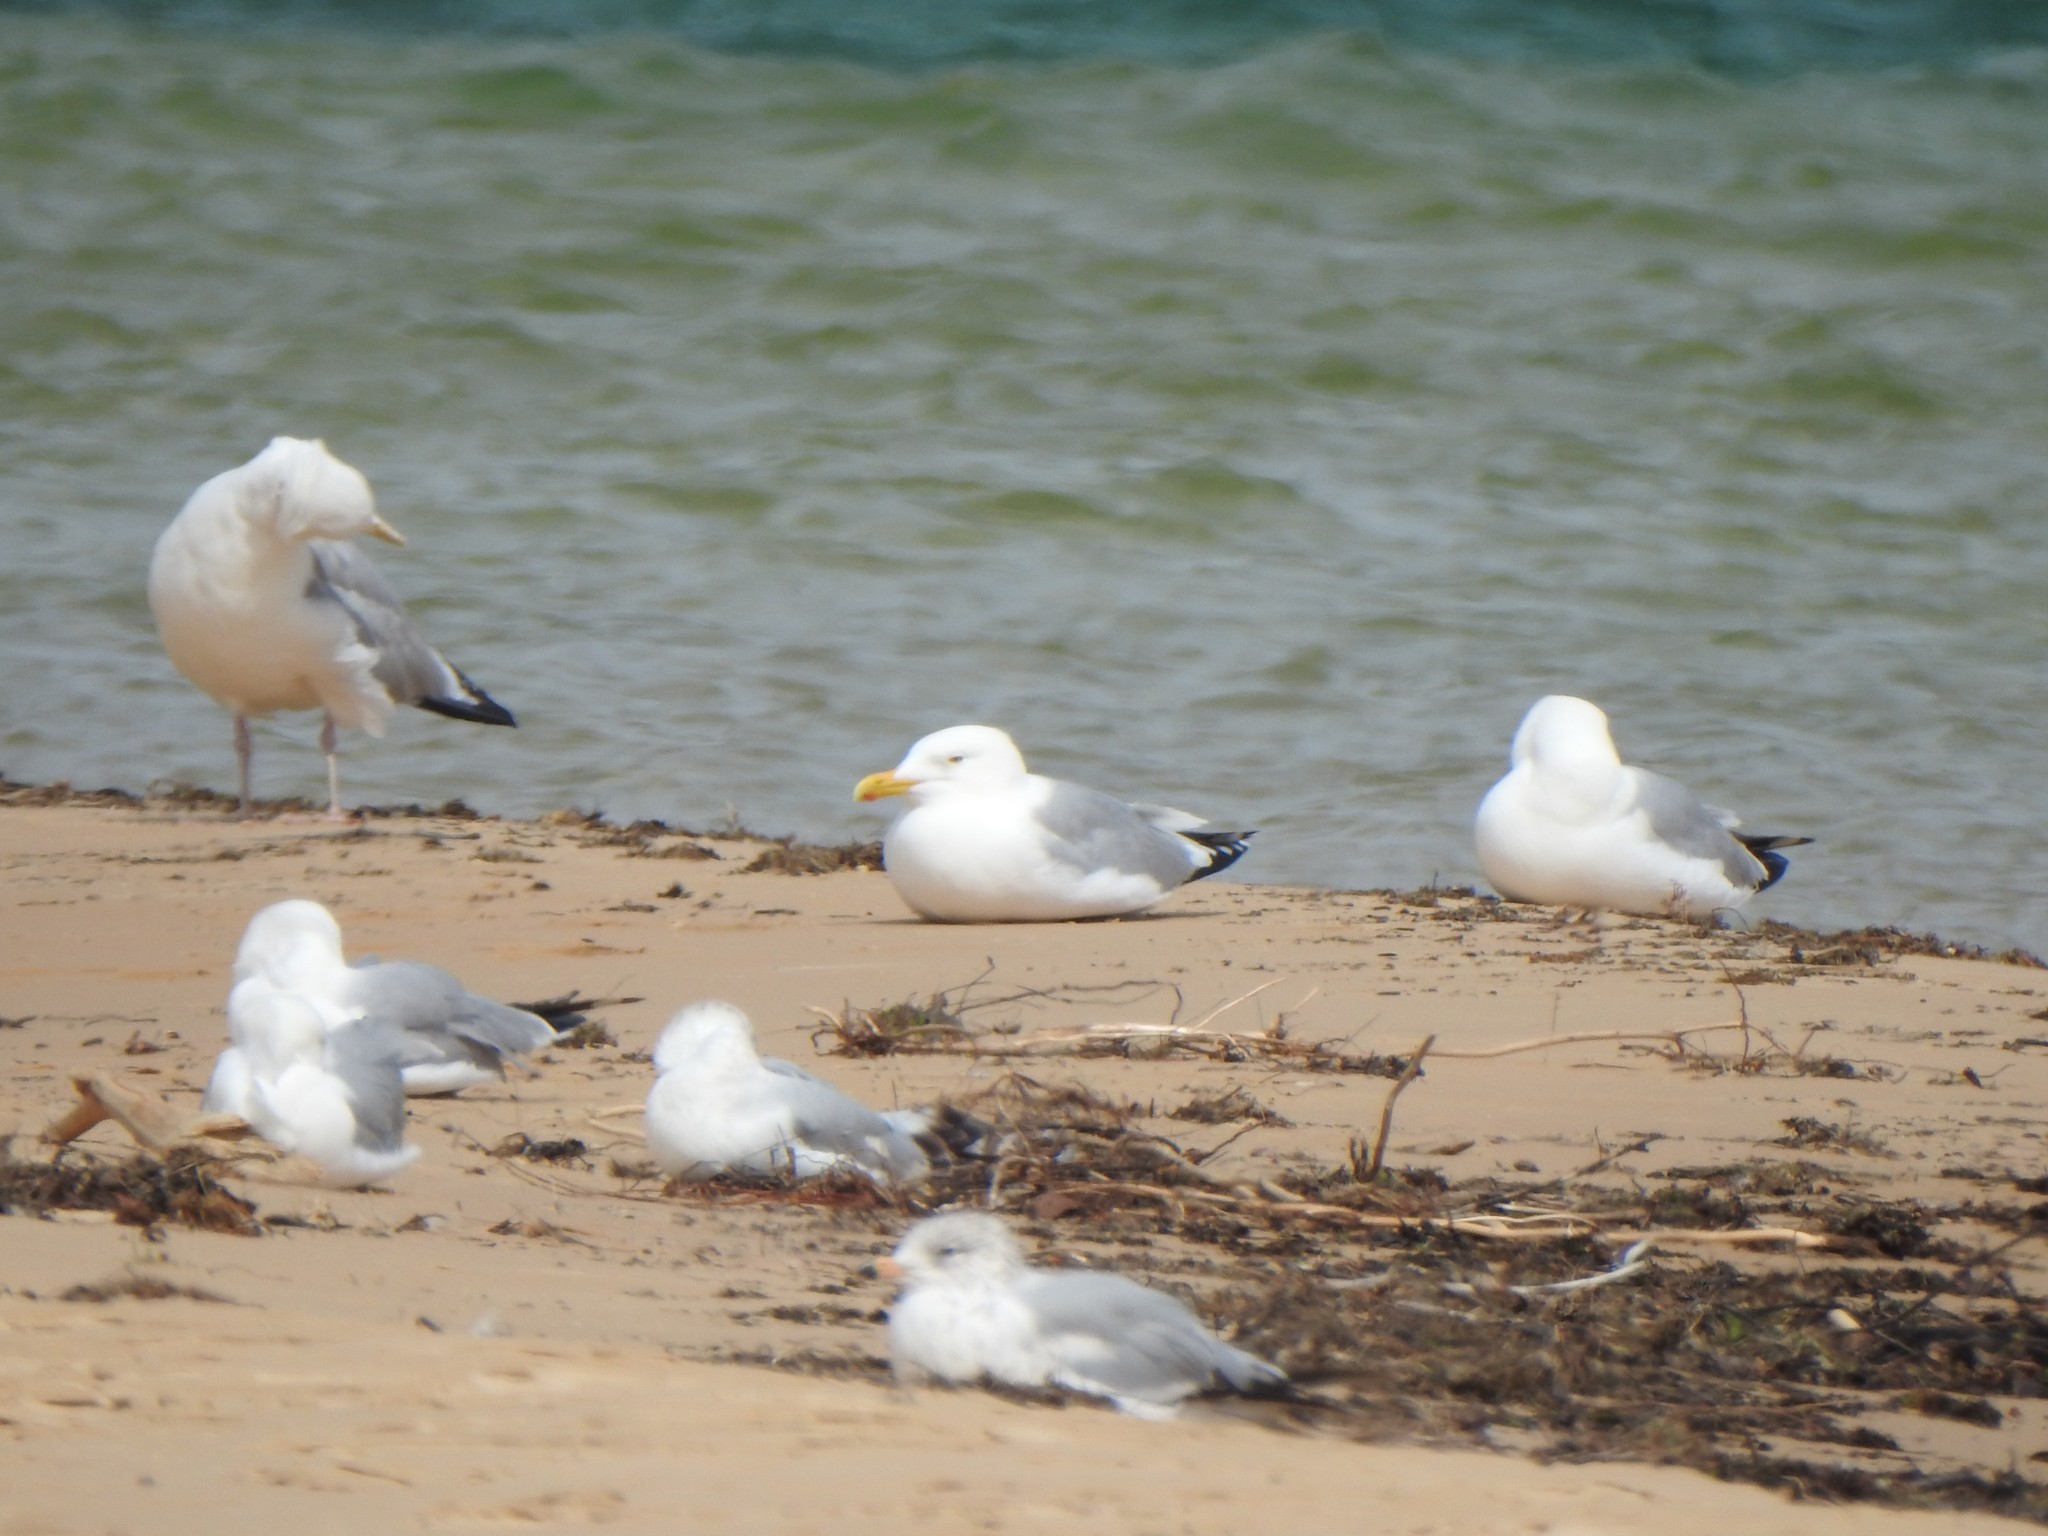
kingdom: Animalia
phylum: Chordata
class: Aves
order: Charadriiformes
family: Laridae
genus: Larus
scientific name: Larus argentatus
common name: Herring gull
